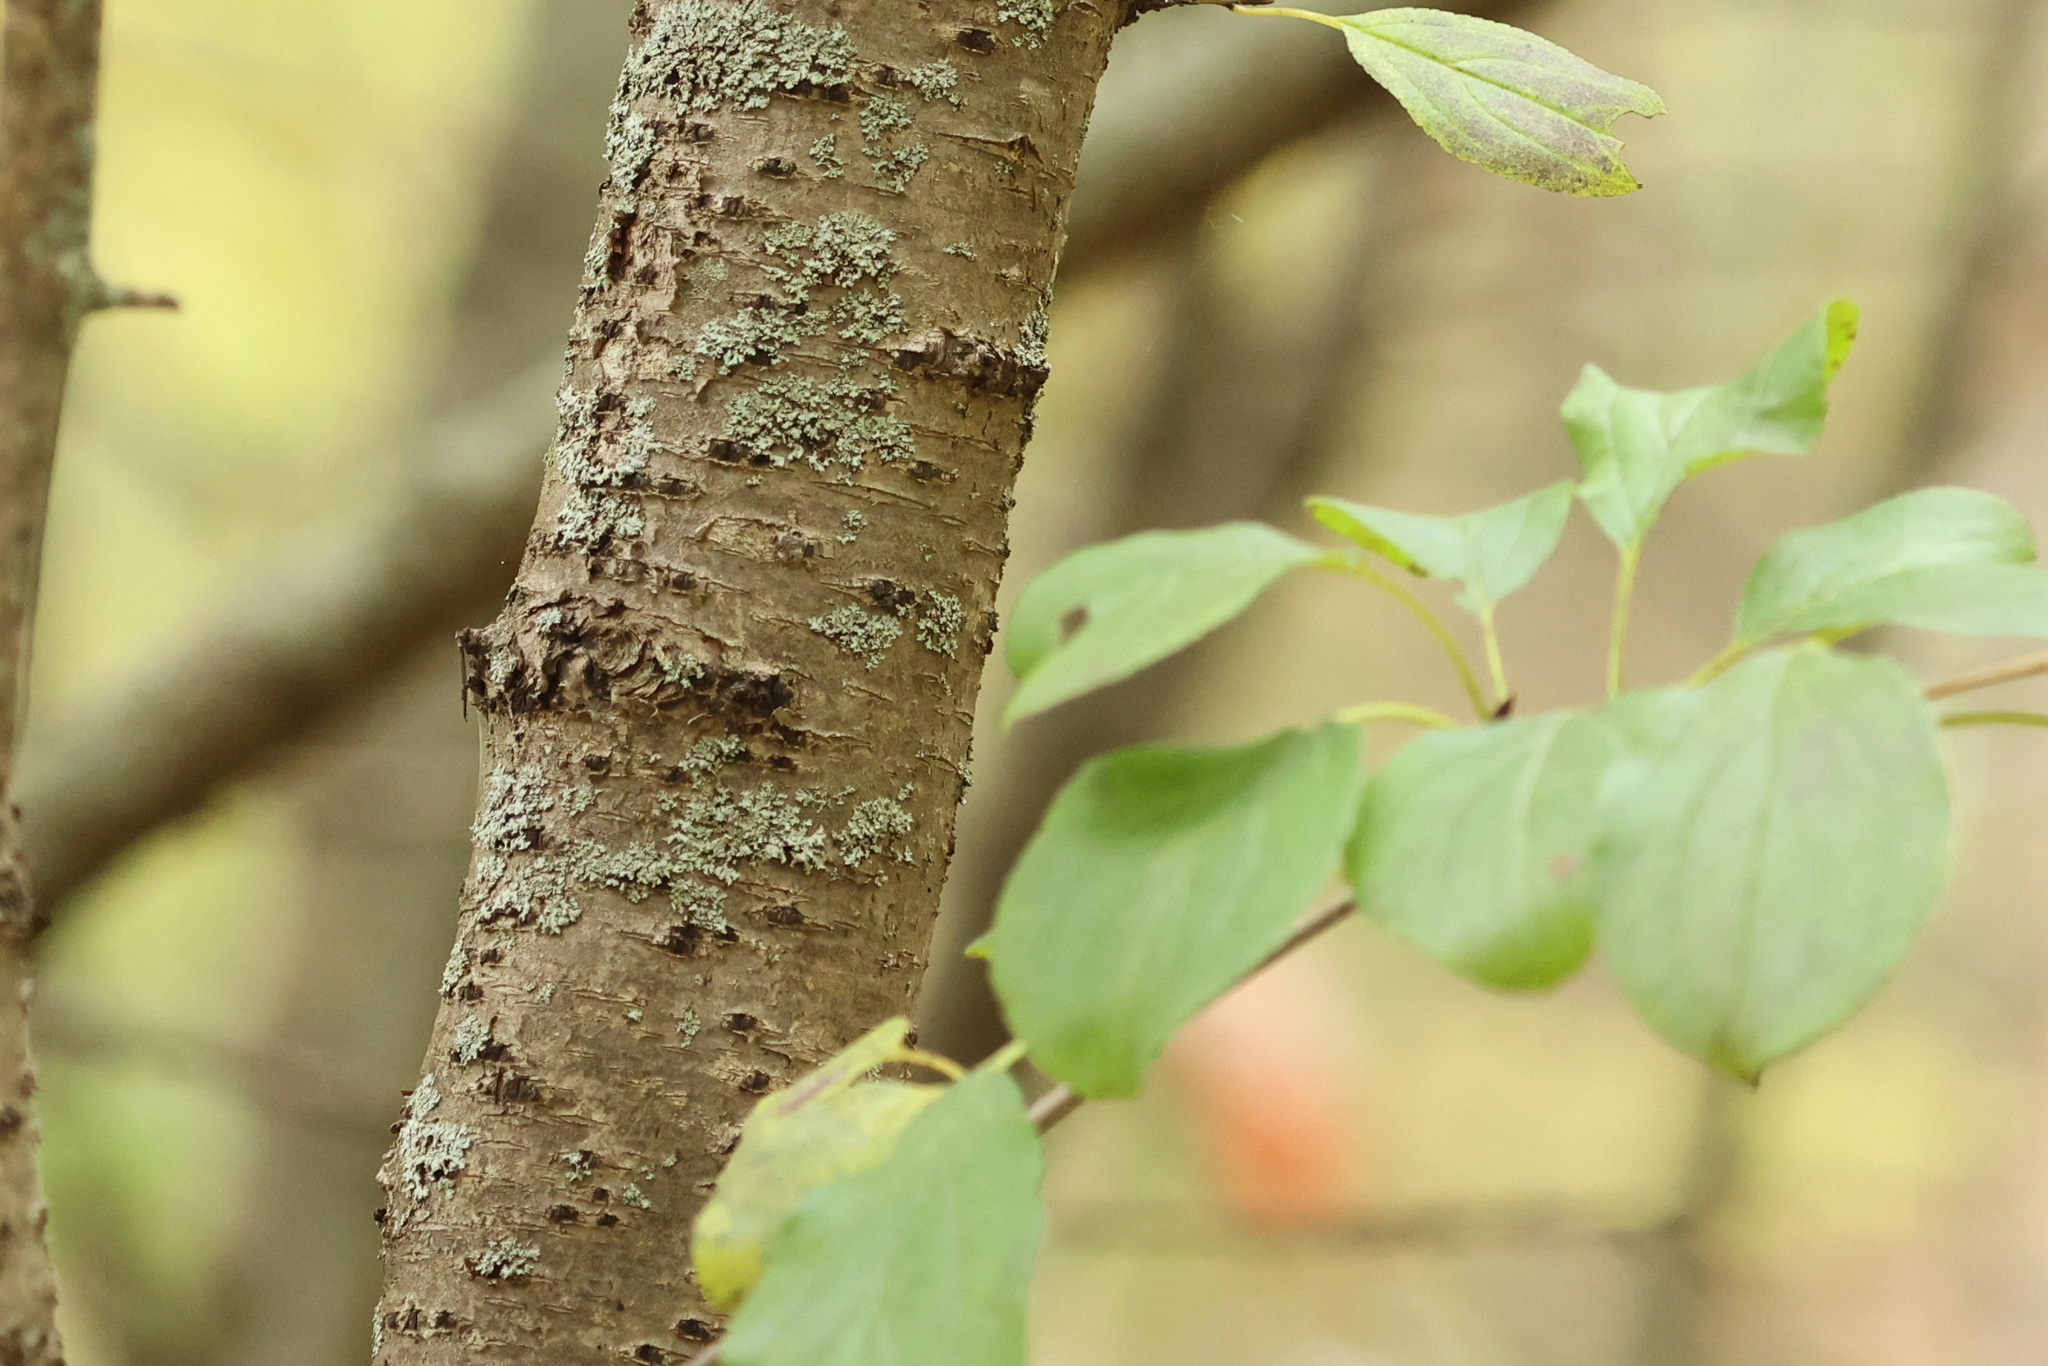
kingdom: Plantae
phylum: Tracheophyta
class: Magnoliopsida
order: Rosales
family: Rhamnaceae
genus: Rhamnus
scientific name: Rhamnus cathartica
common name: Common buckthorn
